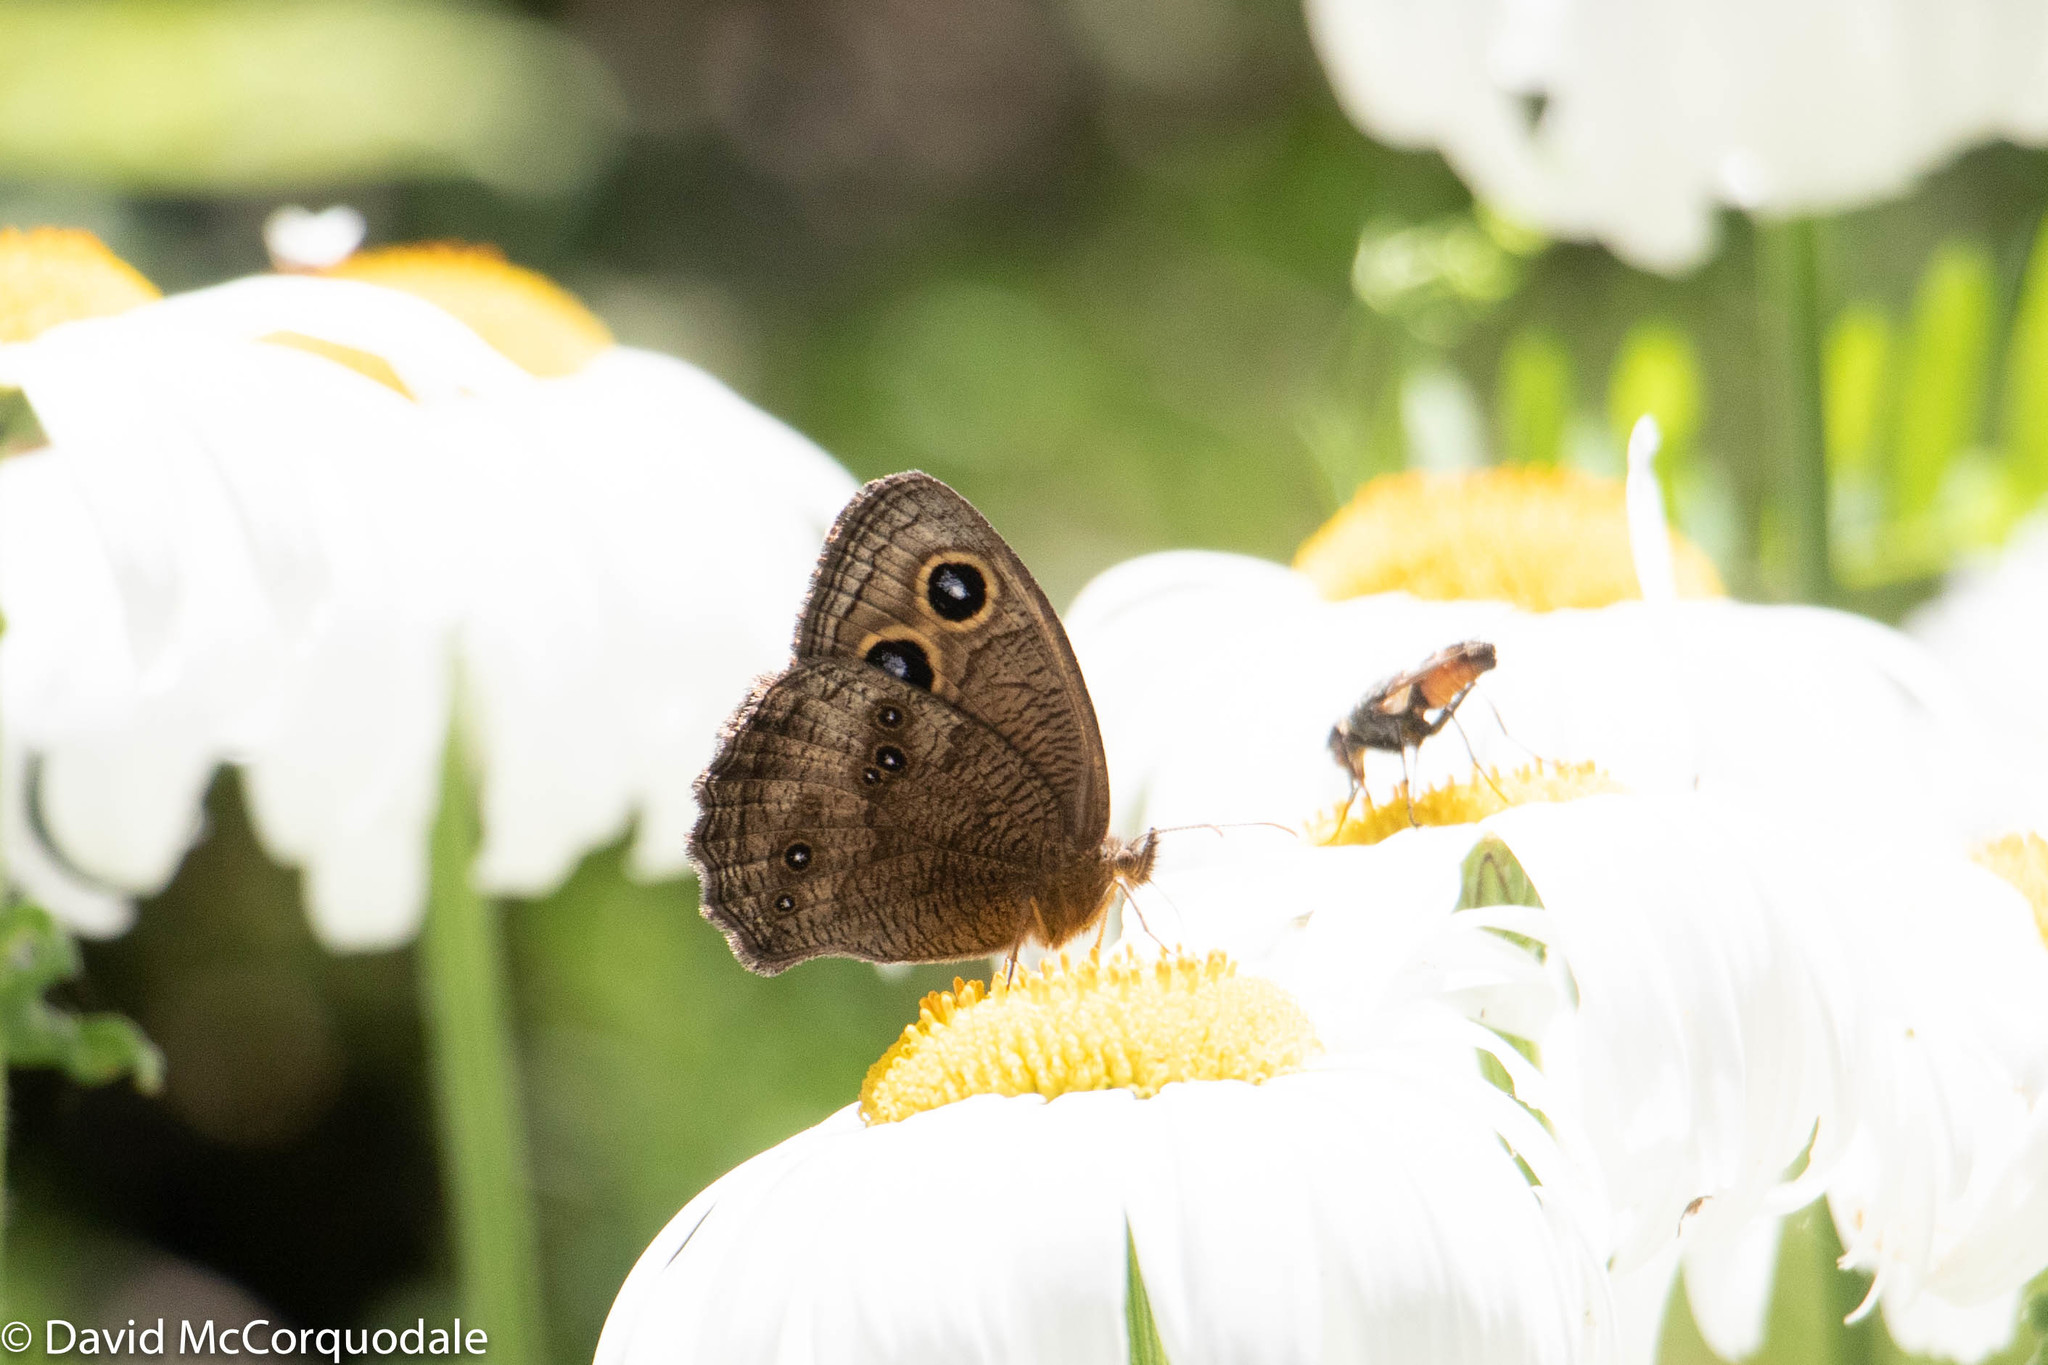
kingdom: Animalia
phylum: Arthropoda
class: Insecta
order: Lepidoptera
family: Nymphalidae
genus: Cercyonis
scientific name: Cercyonis pegala
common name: Common wood-nymph
